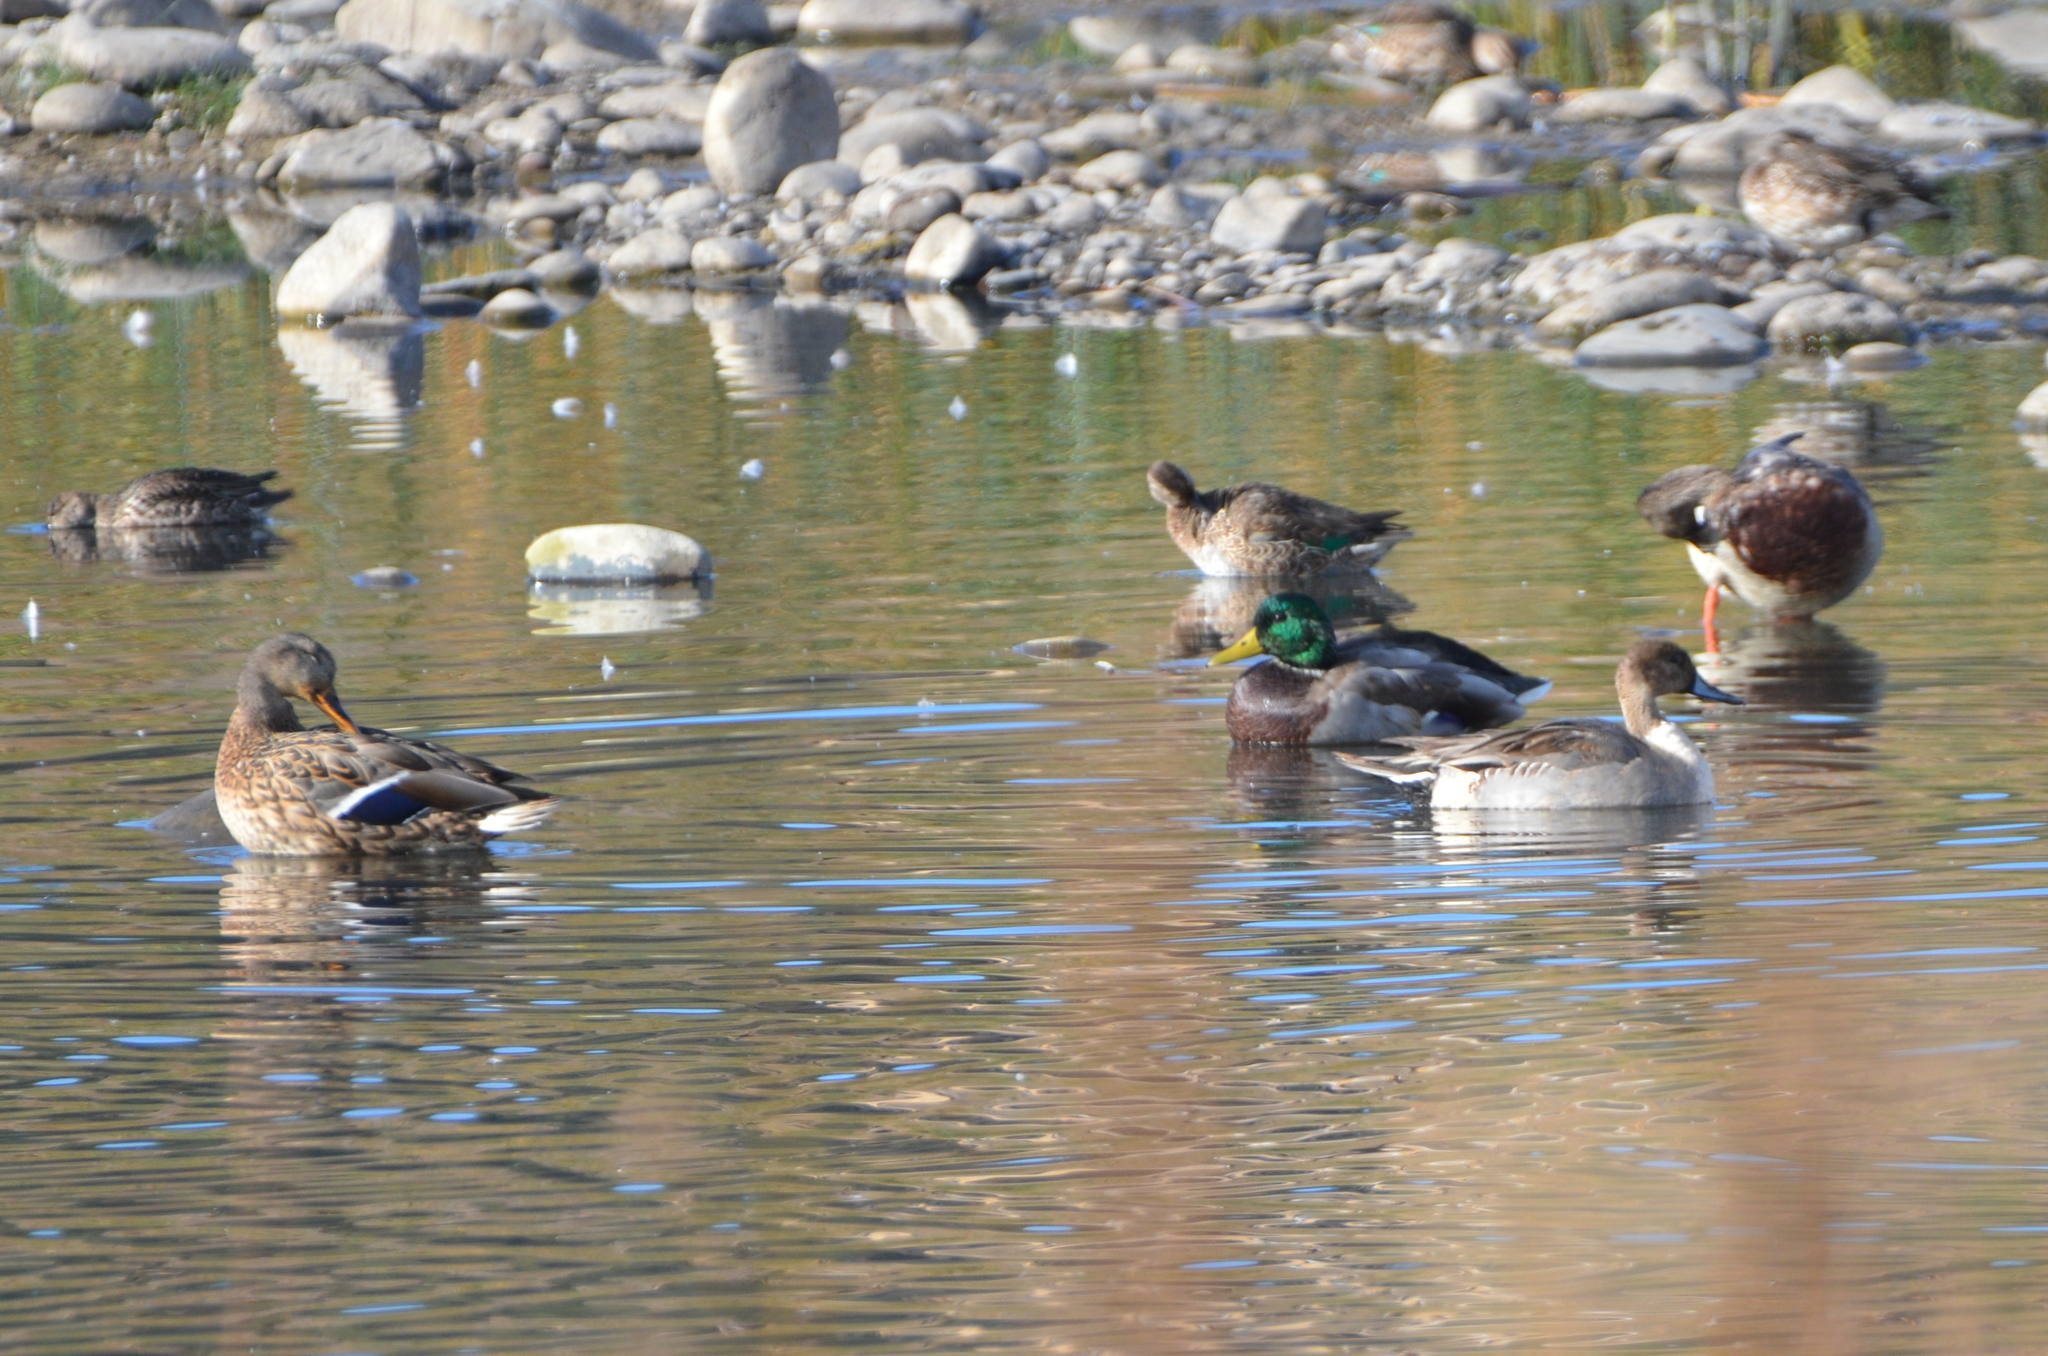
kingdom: Animalia
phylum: Chordata
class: Aves
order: Anseriformes
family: Anatidae
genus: Anas
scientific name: Anas platyrhynchos
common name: Mallard
